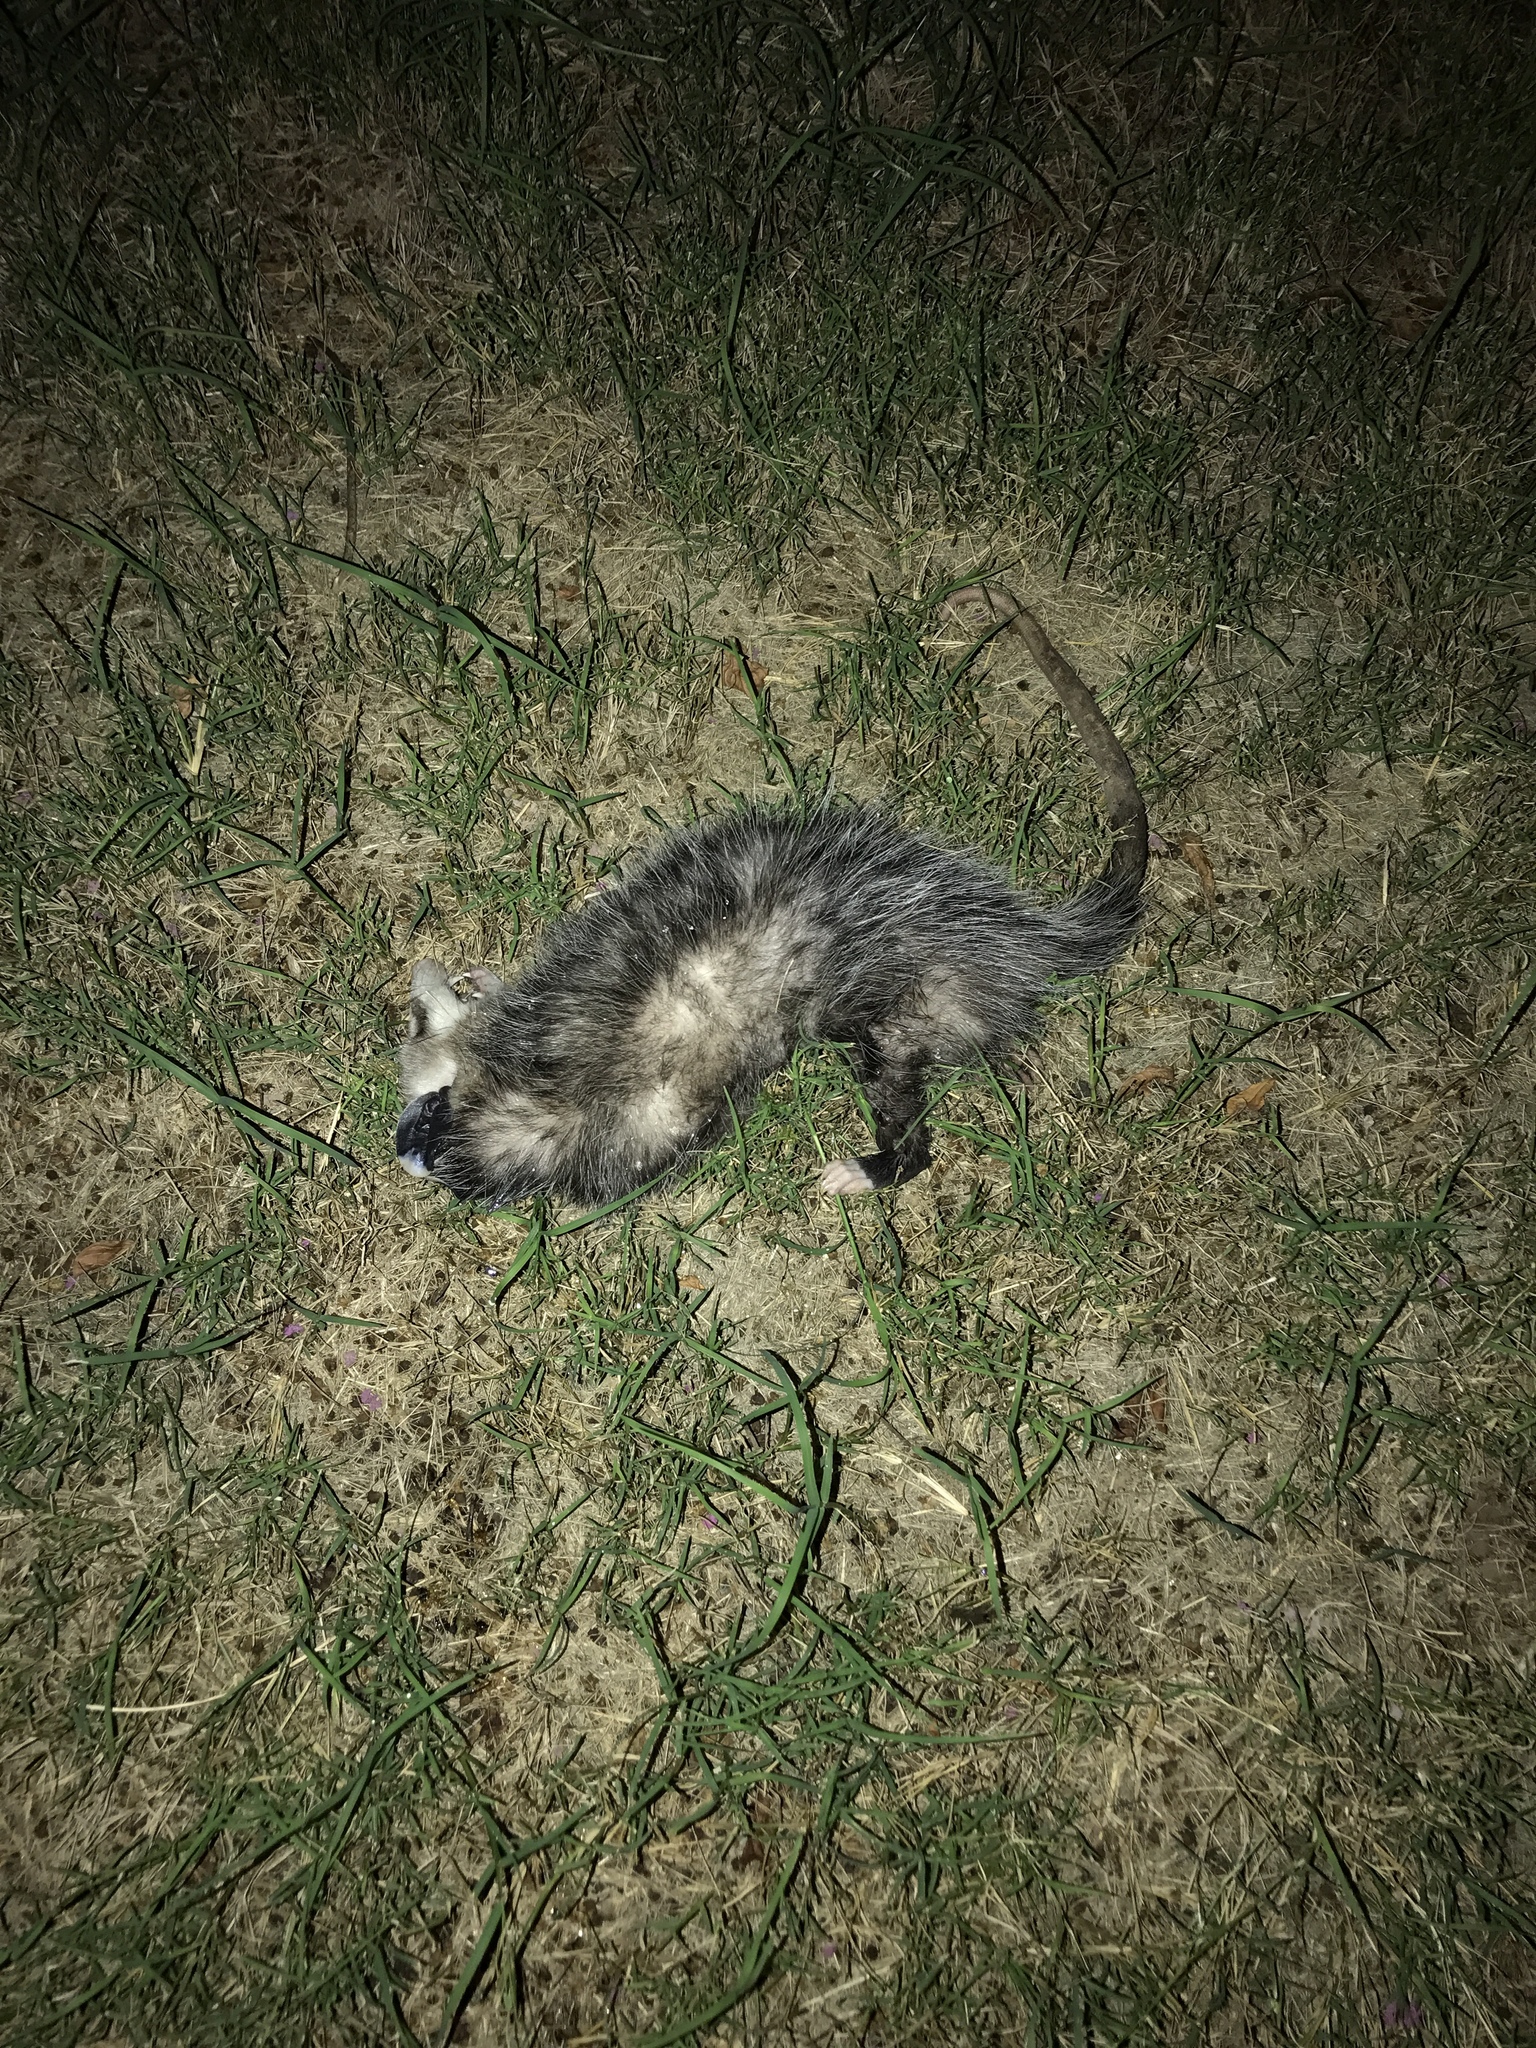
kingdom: Animalia
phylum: Chordata
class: Mammalia
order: Didelphimorphia
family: Didelphidae
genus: Didelphis
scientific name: Didelphis virginiana
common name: Virginia opossum
